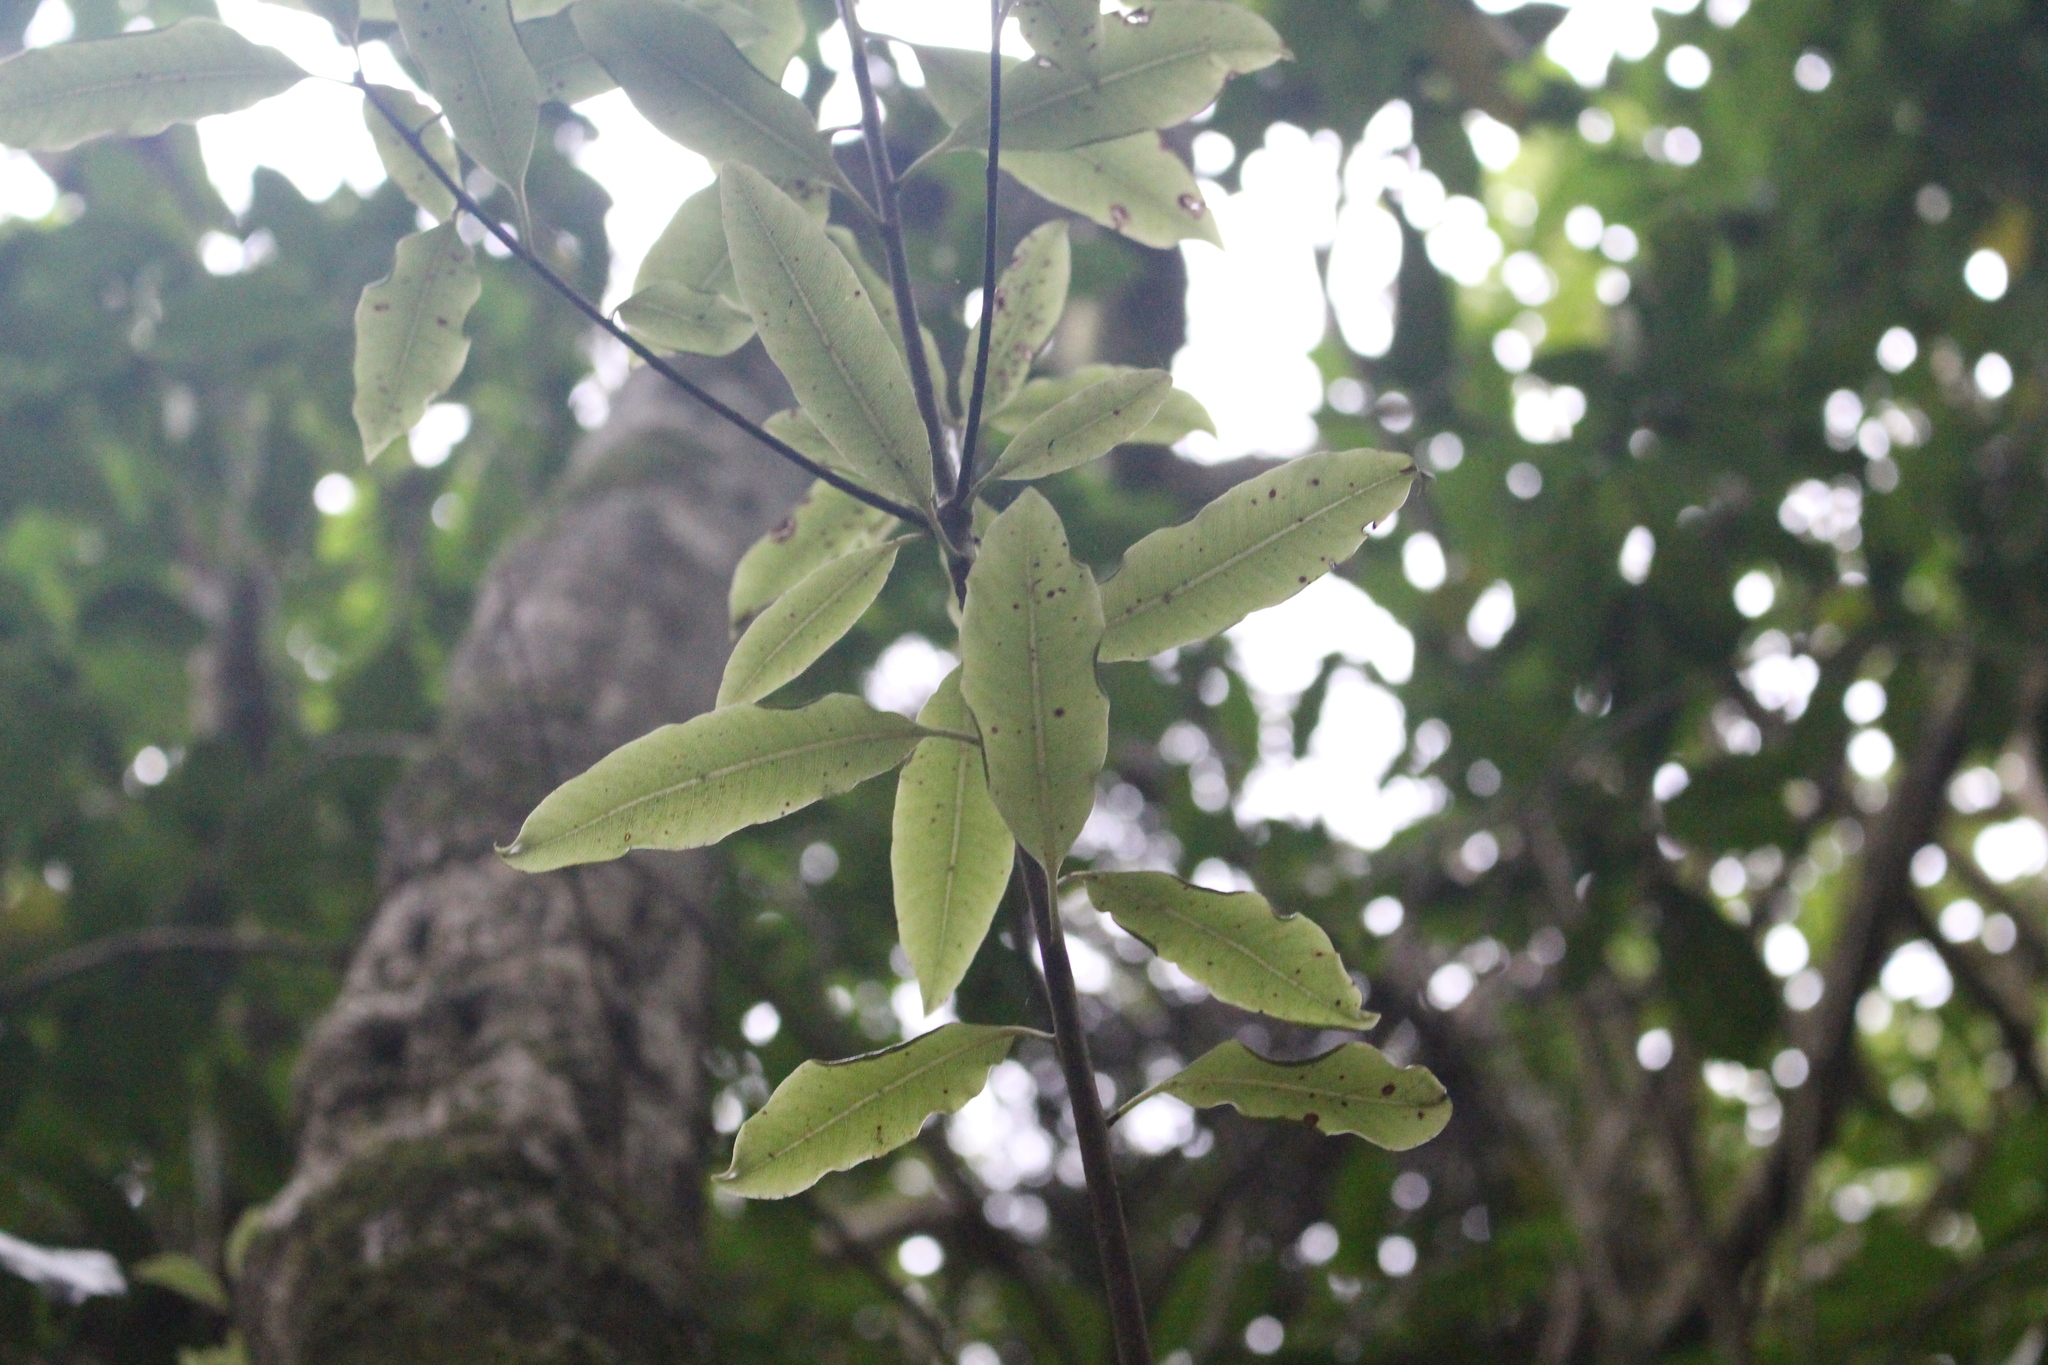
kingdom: Plantae
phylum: Tracheophyta
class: Magnoliopsida
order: Apiales
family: Pittosporaceae
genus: Pittosporum
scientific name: Pittosporum eugenioides
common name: Lemonwood
